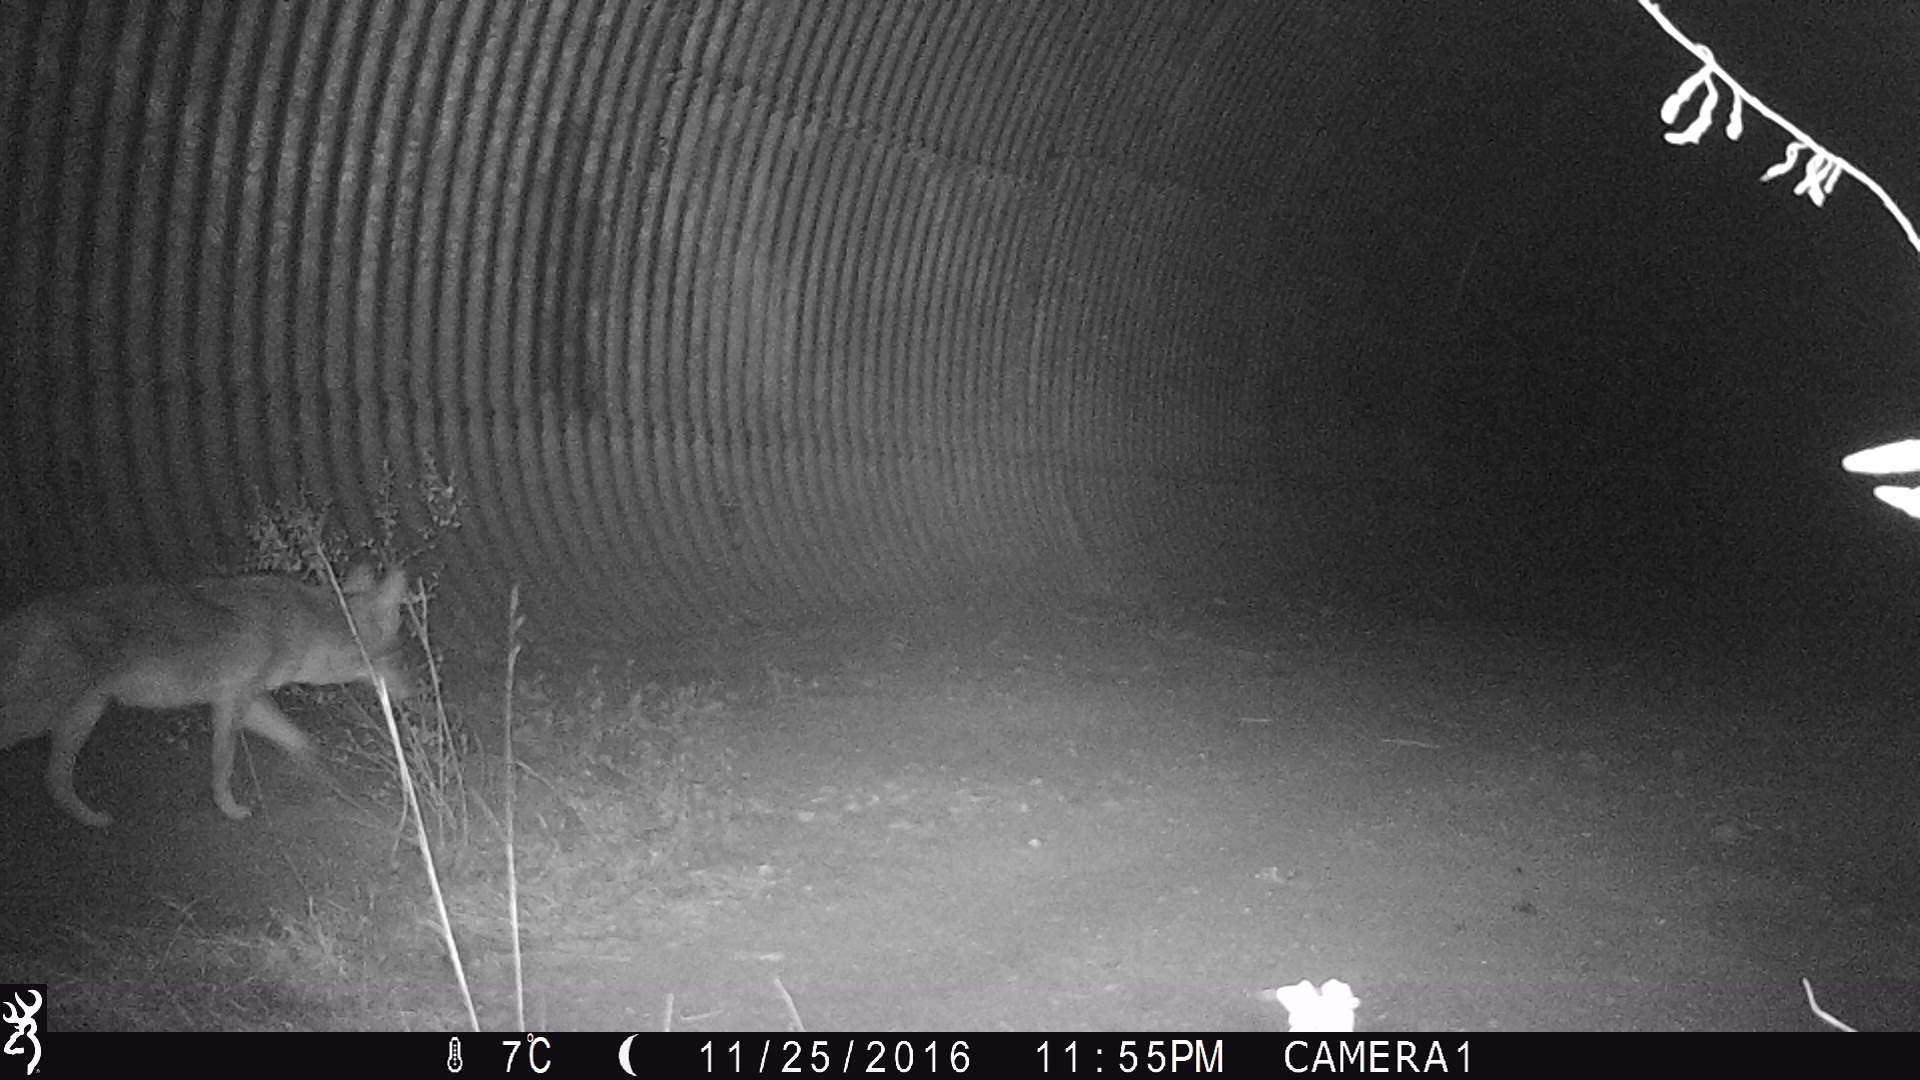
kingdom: Animalia
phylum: Chordata
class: Mammalia
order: Carnivora
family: Canidae
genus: Canis
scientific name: Canis latrans
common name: Coyote
